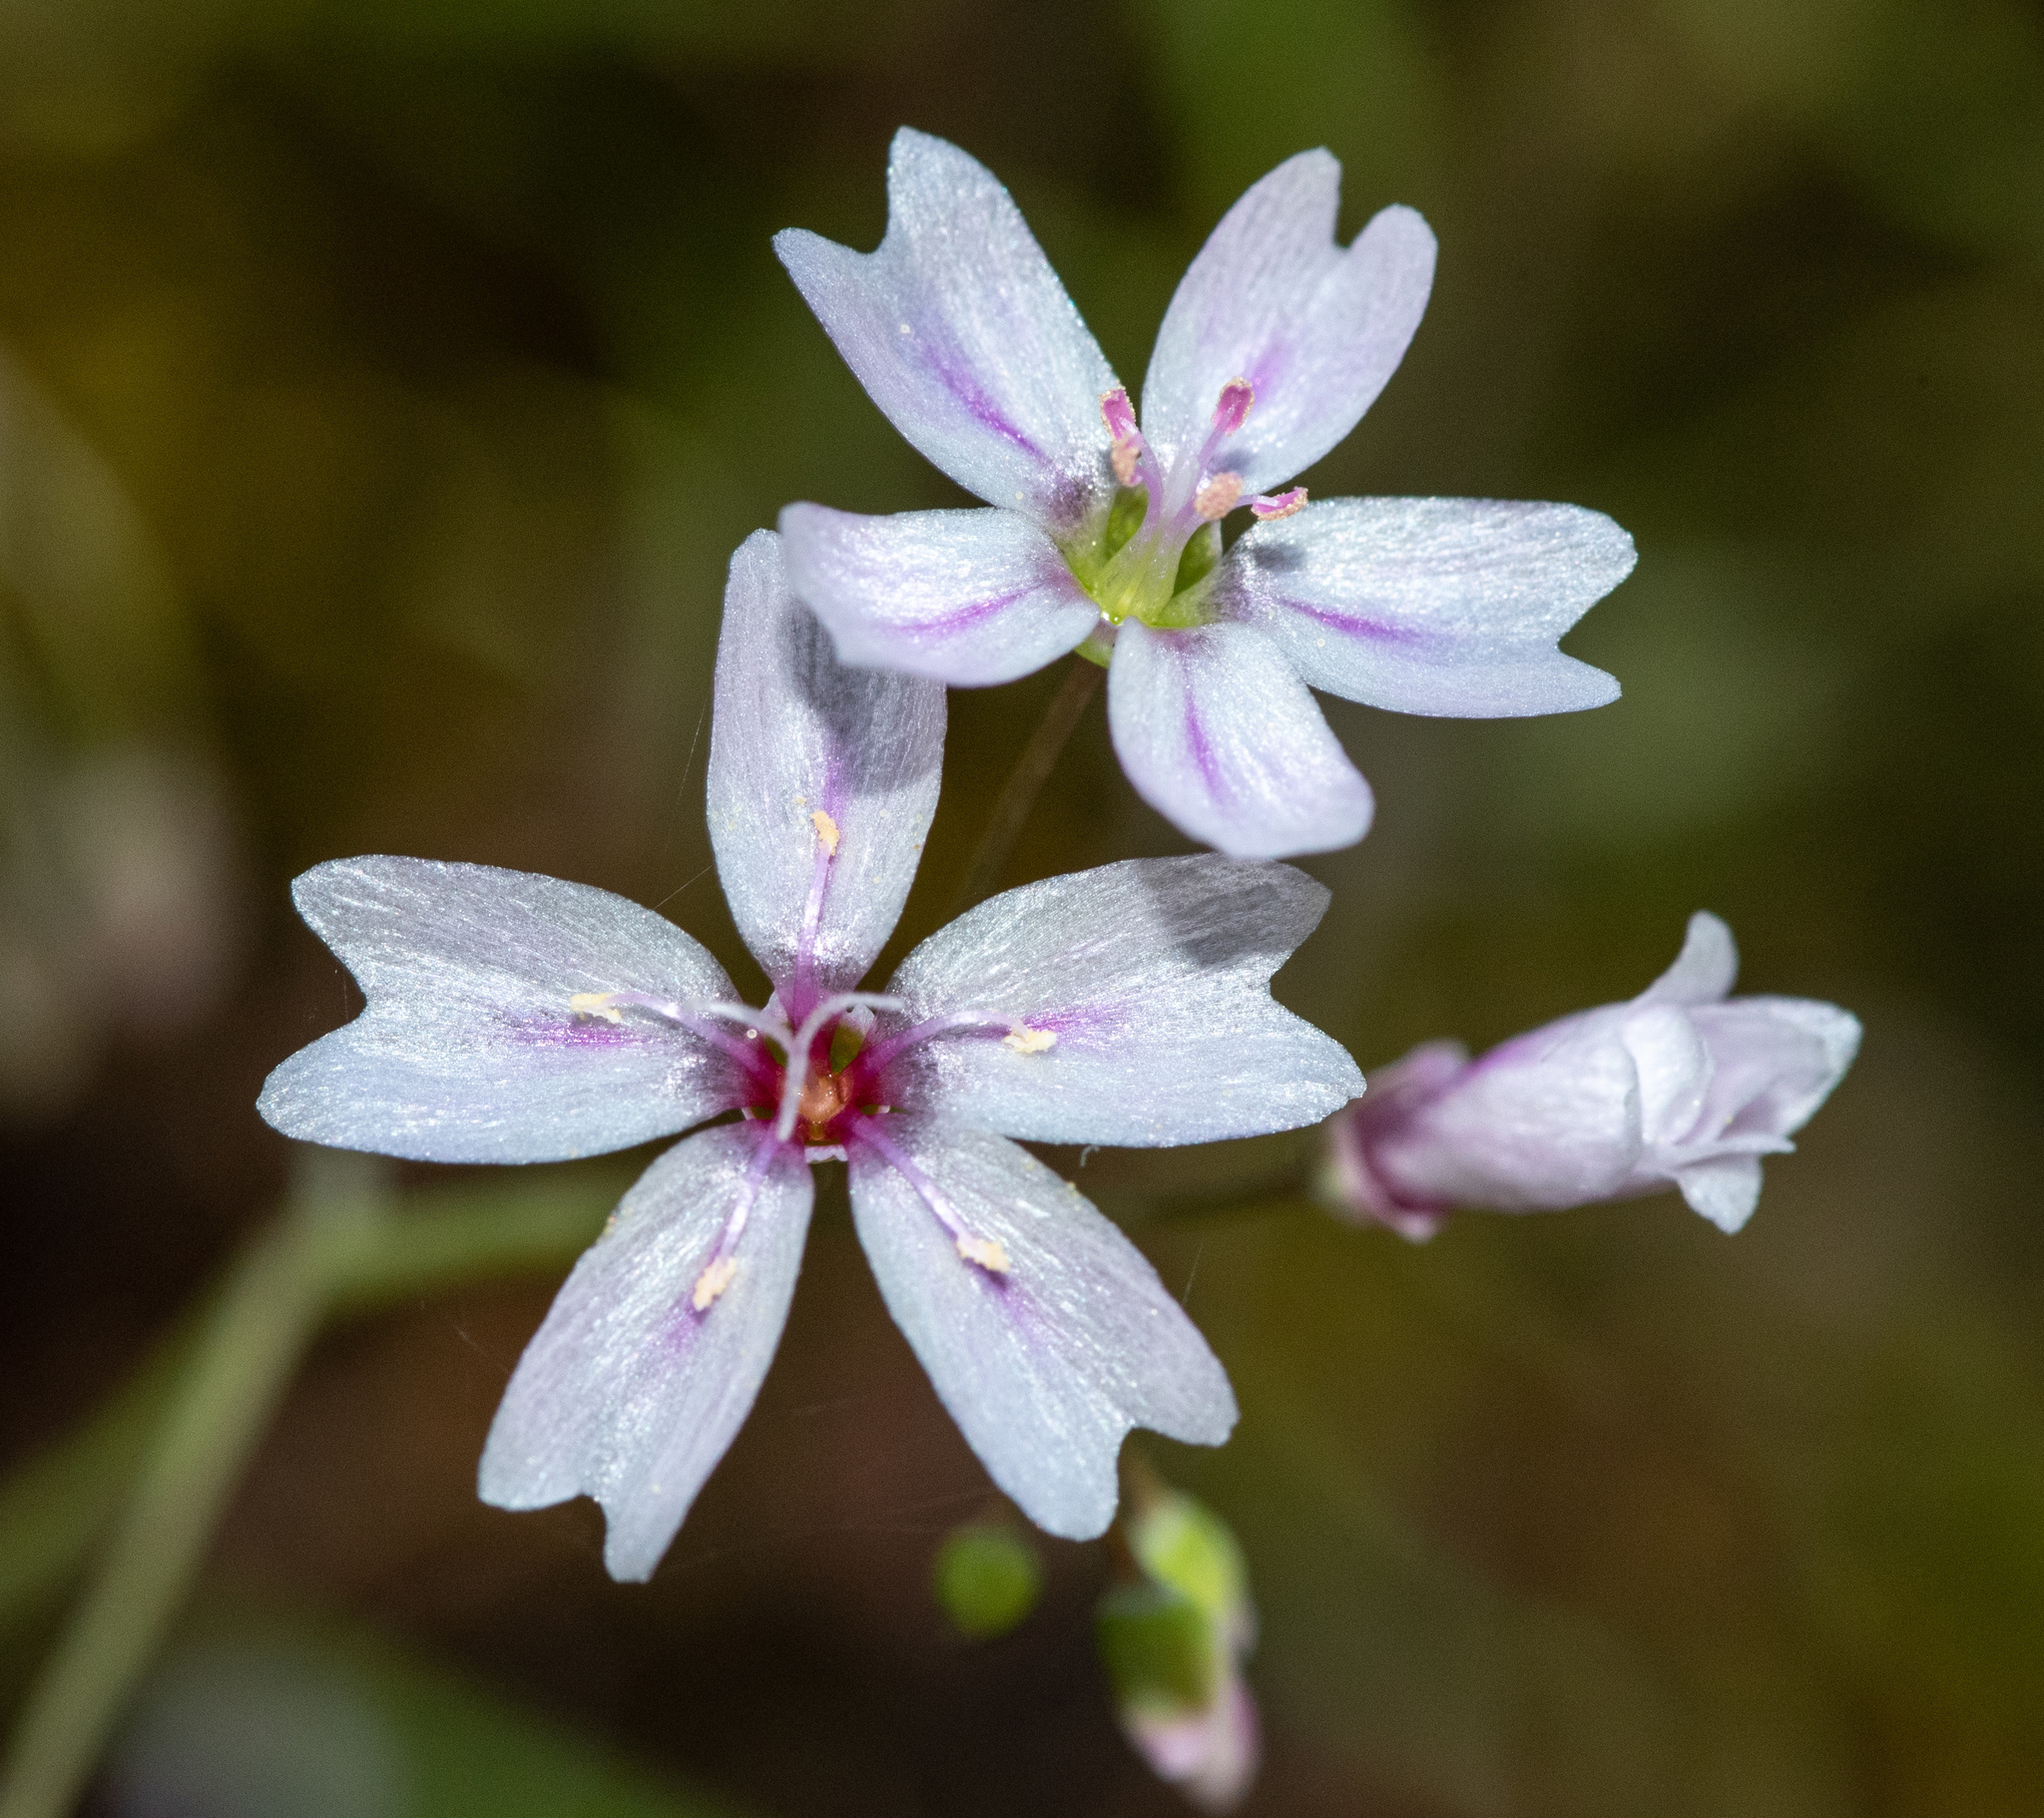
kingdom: Plantae
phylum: Tracheophyta
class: Magnoliopsida
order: Caryophyllales
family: Montiaceae
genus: Claytonia
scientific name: Claytonia gypsophiloides
